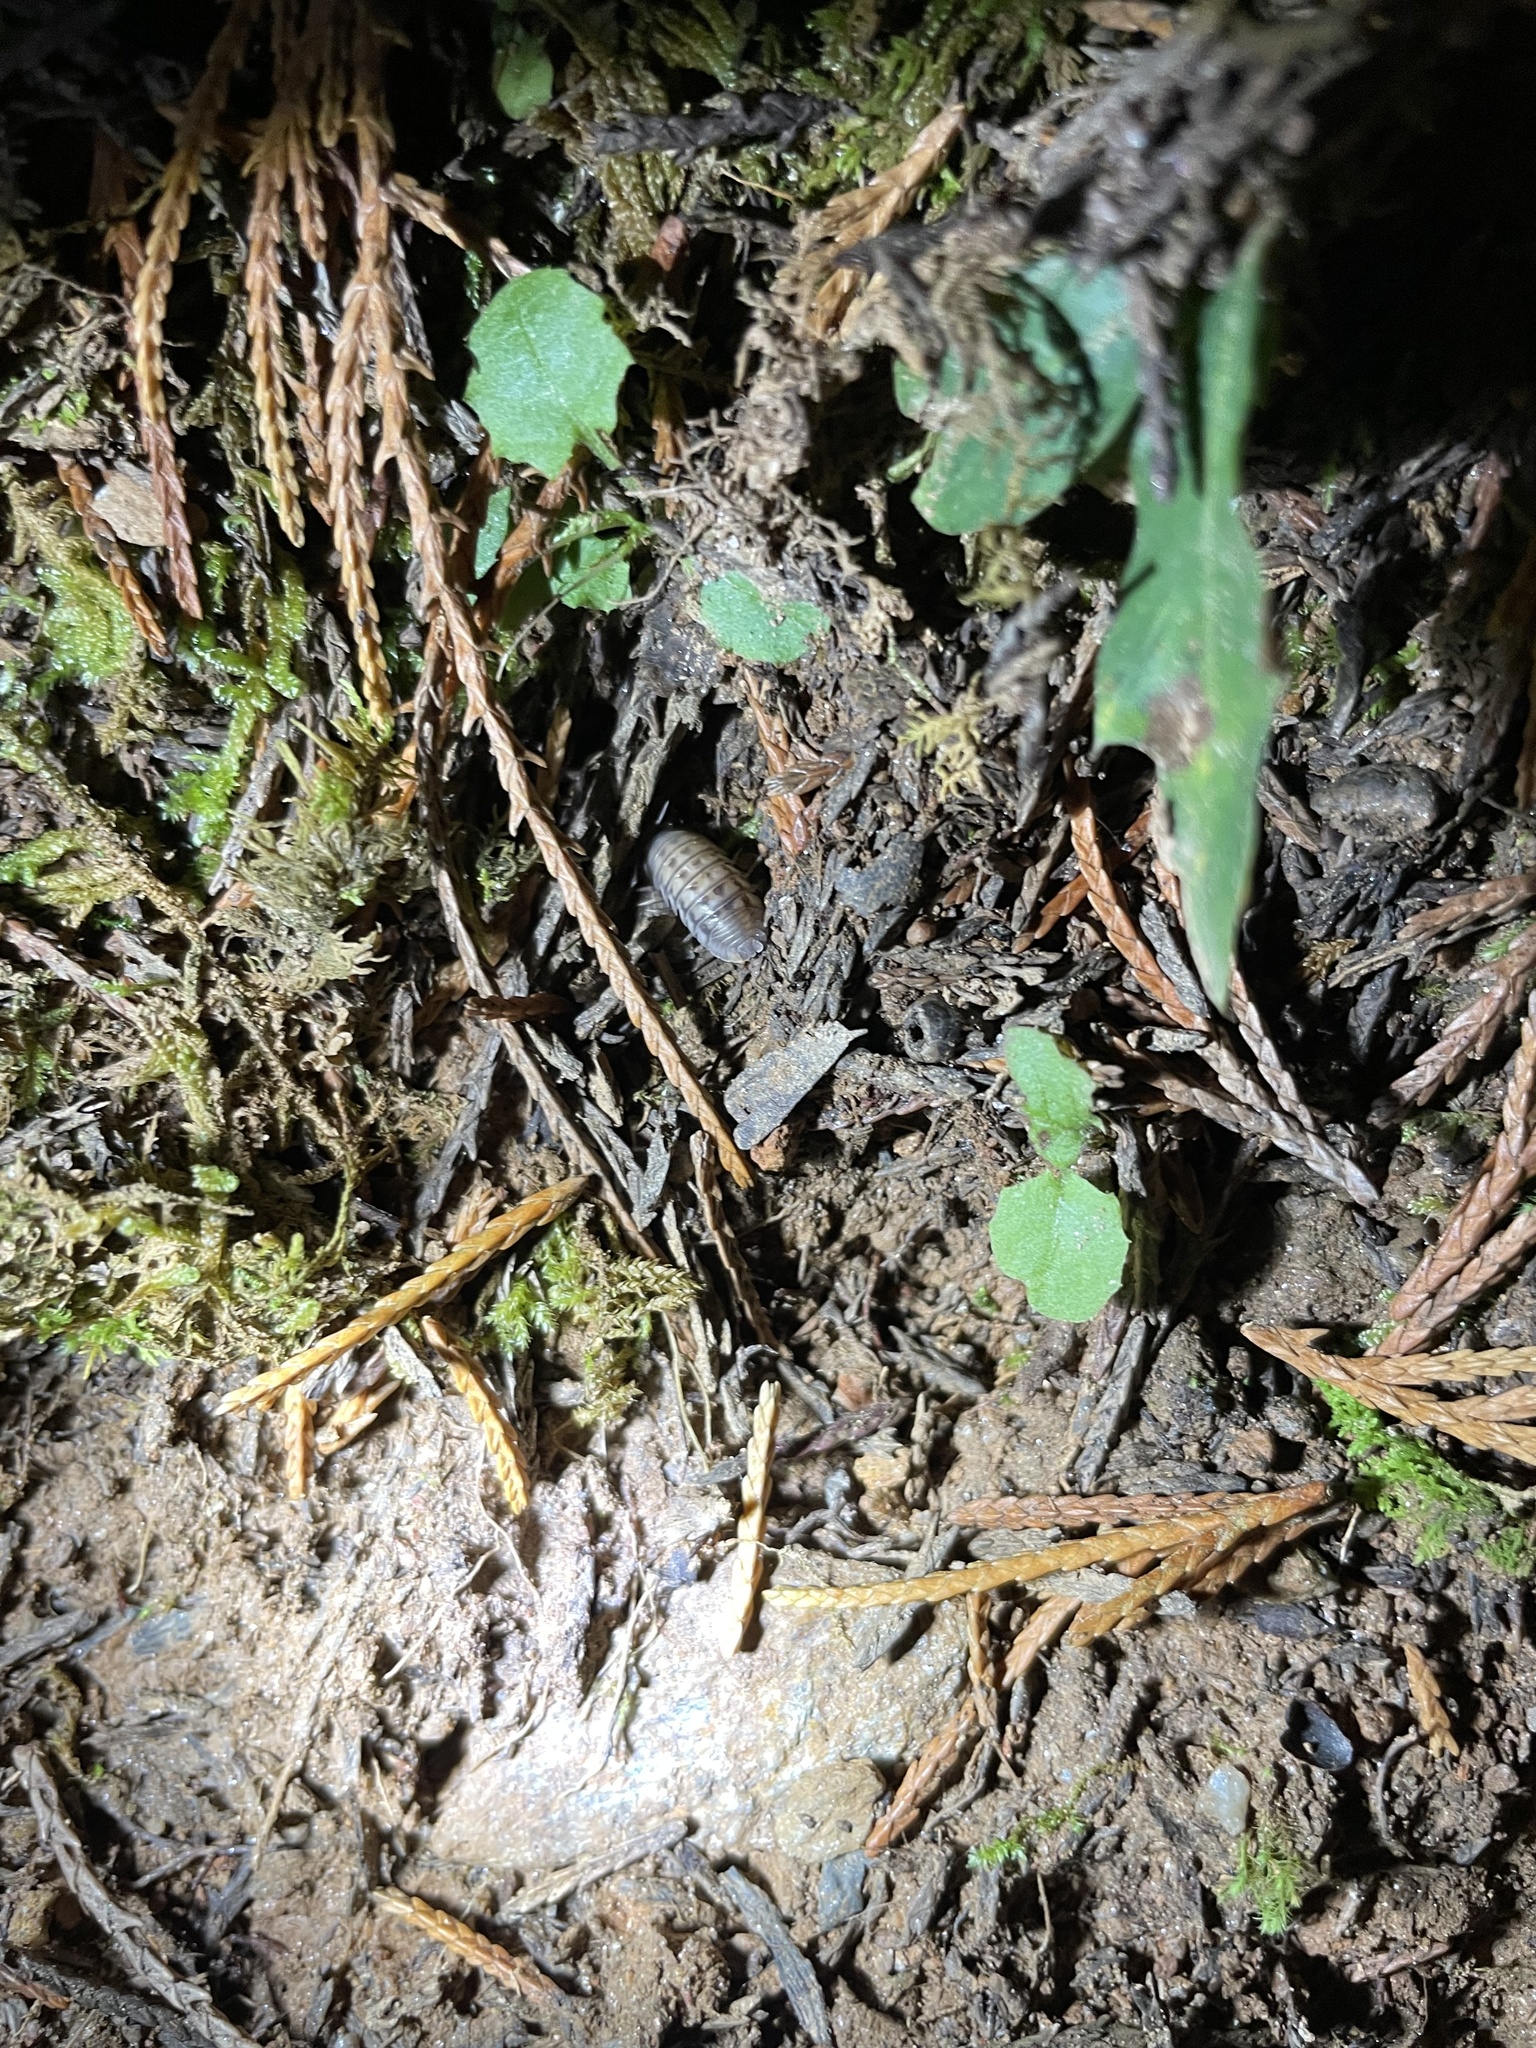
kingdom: Animalia
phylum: Arthropoda
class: Malacostraca
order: Isopoda
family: Armadillidiidae
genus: Armadillidium
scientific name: Armadillidium nasatum
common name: Isopod
